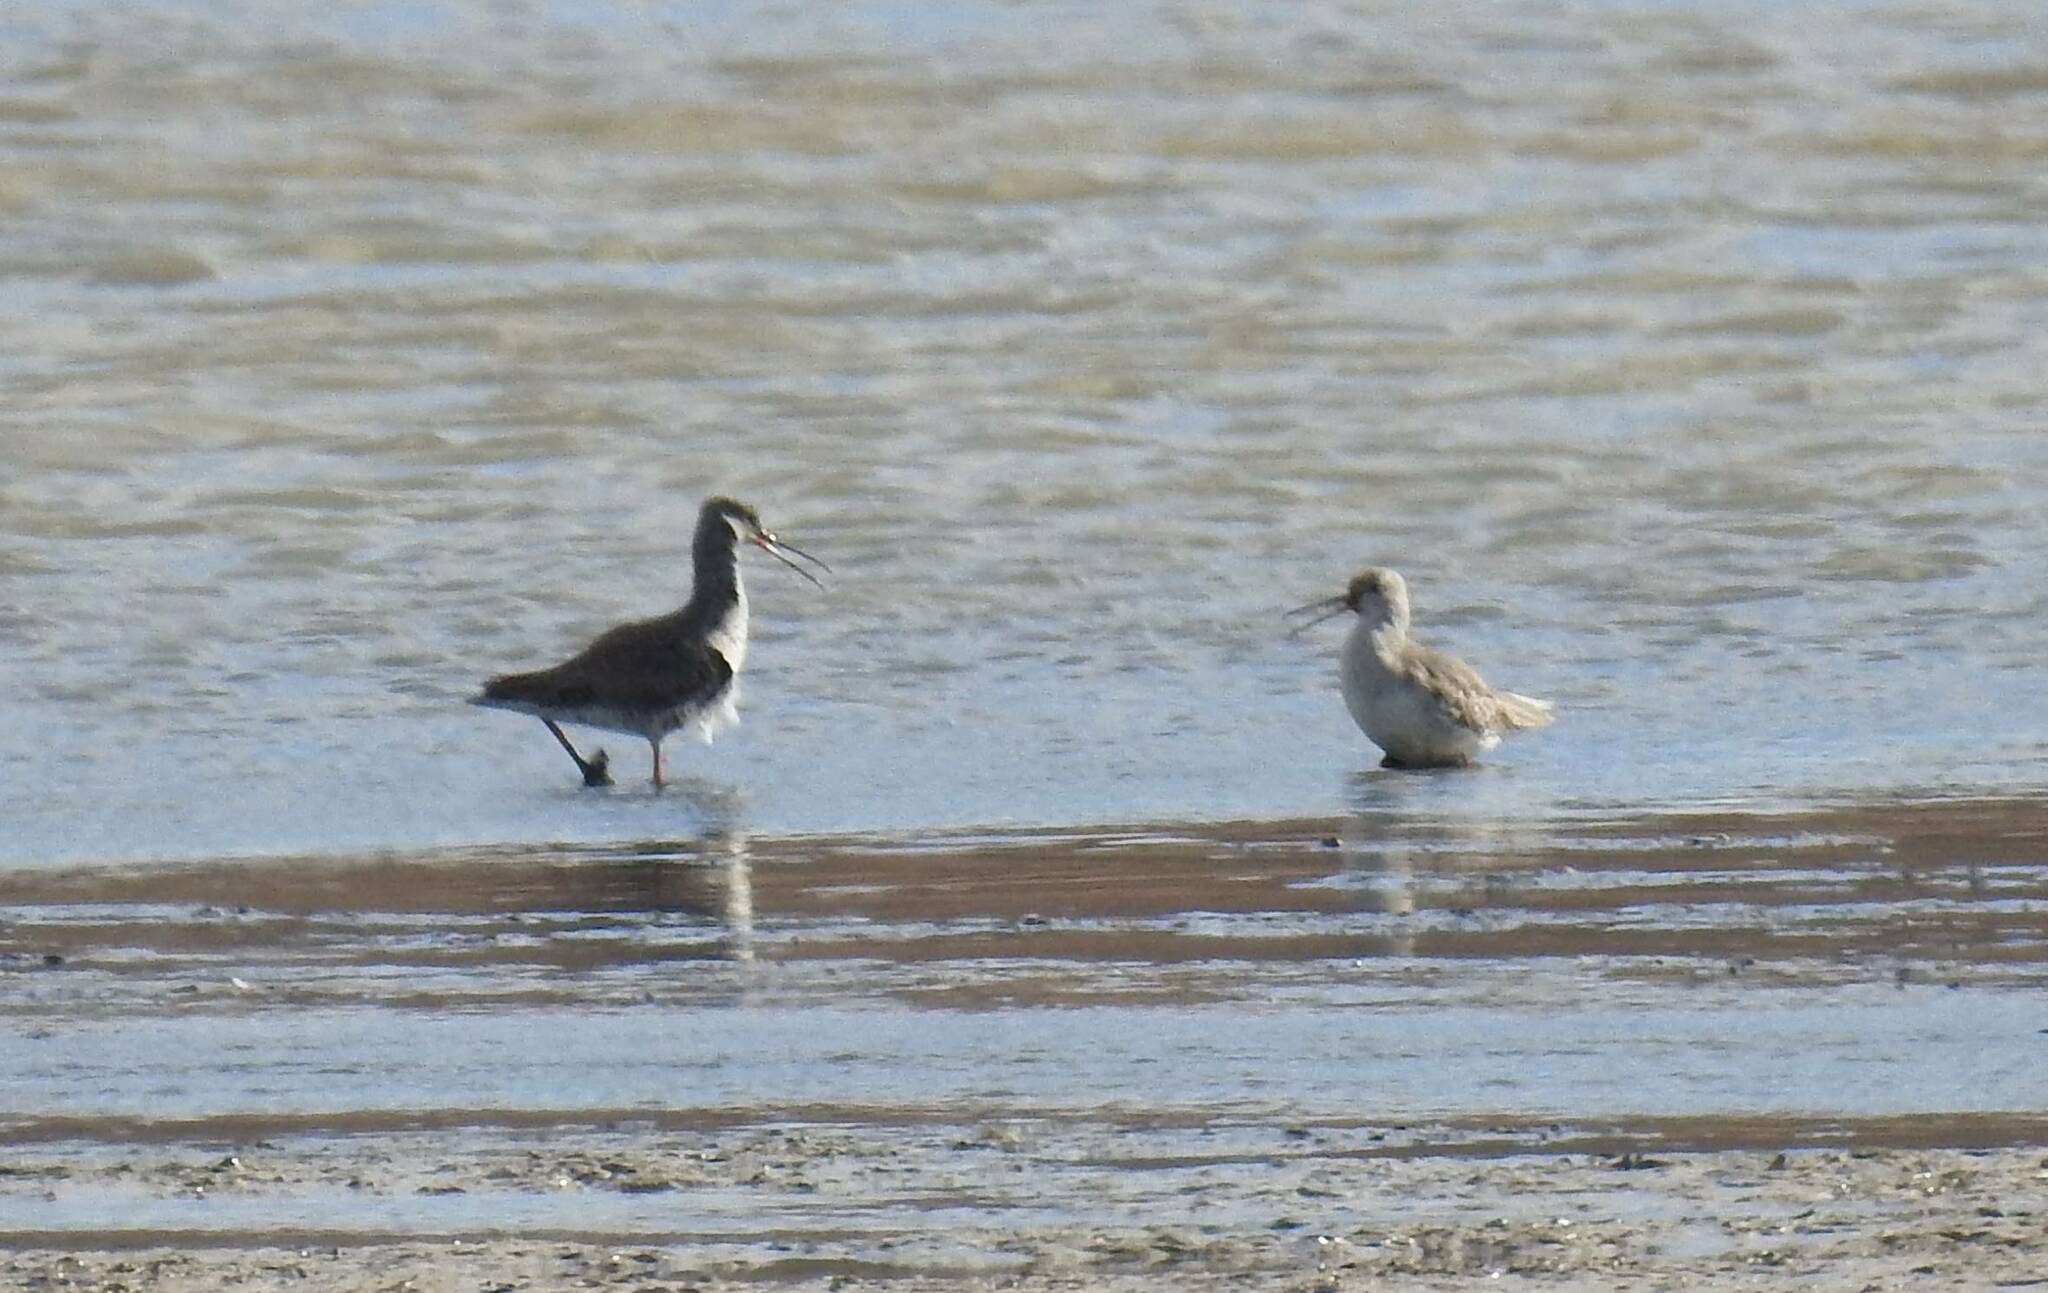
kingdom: Animalia
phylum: Chordata
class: Aves
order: Charadriiformes
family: Scolopacidae
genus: Tringa
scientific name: Tringa erythropus
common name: Spotted redshank
